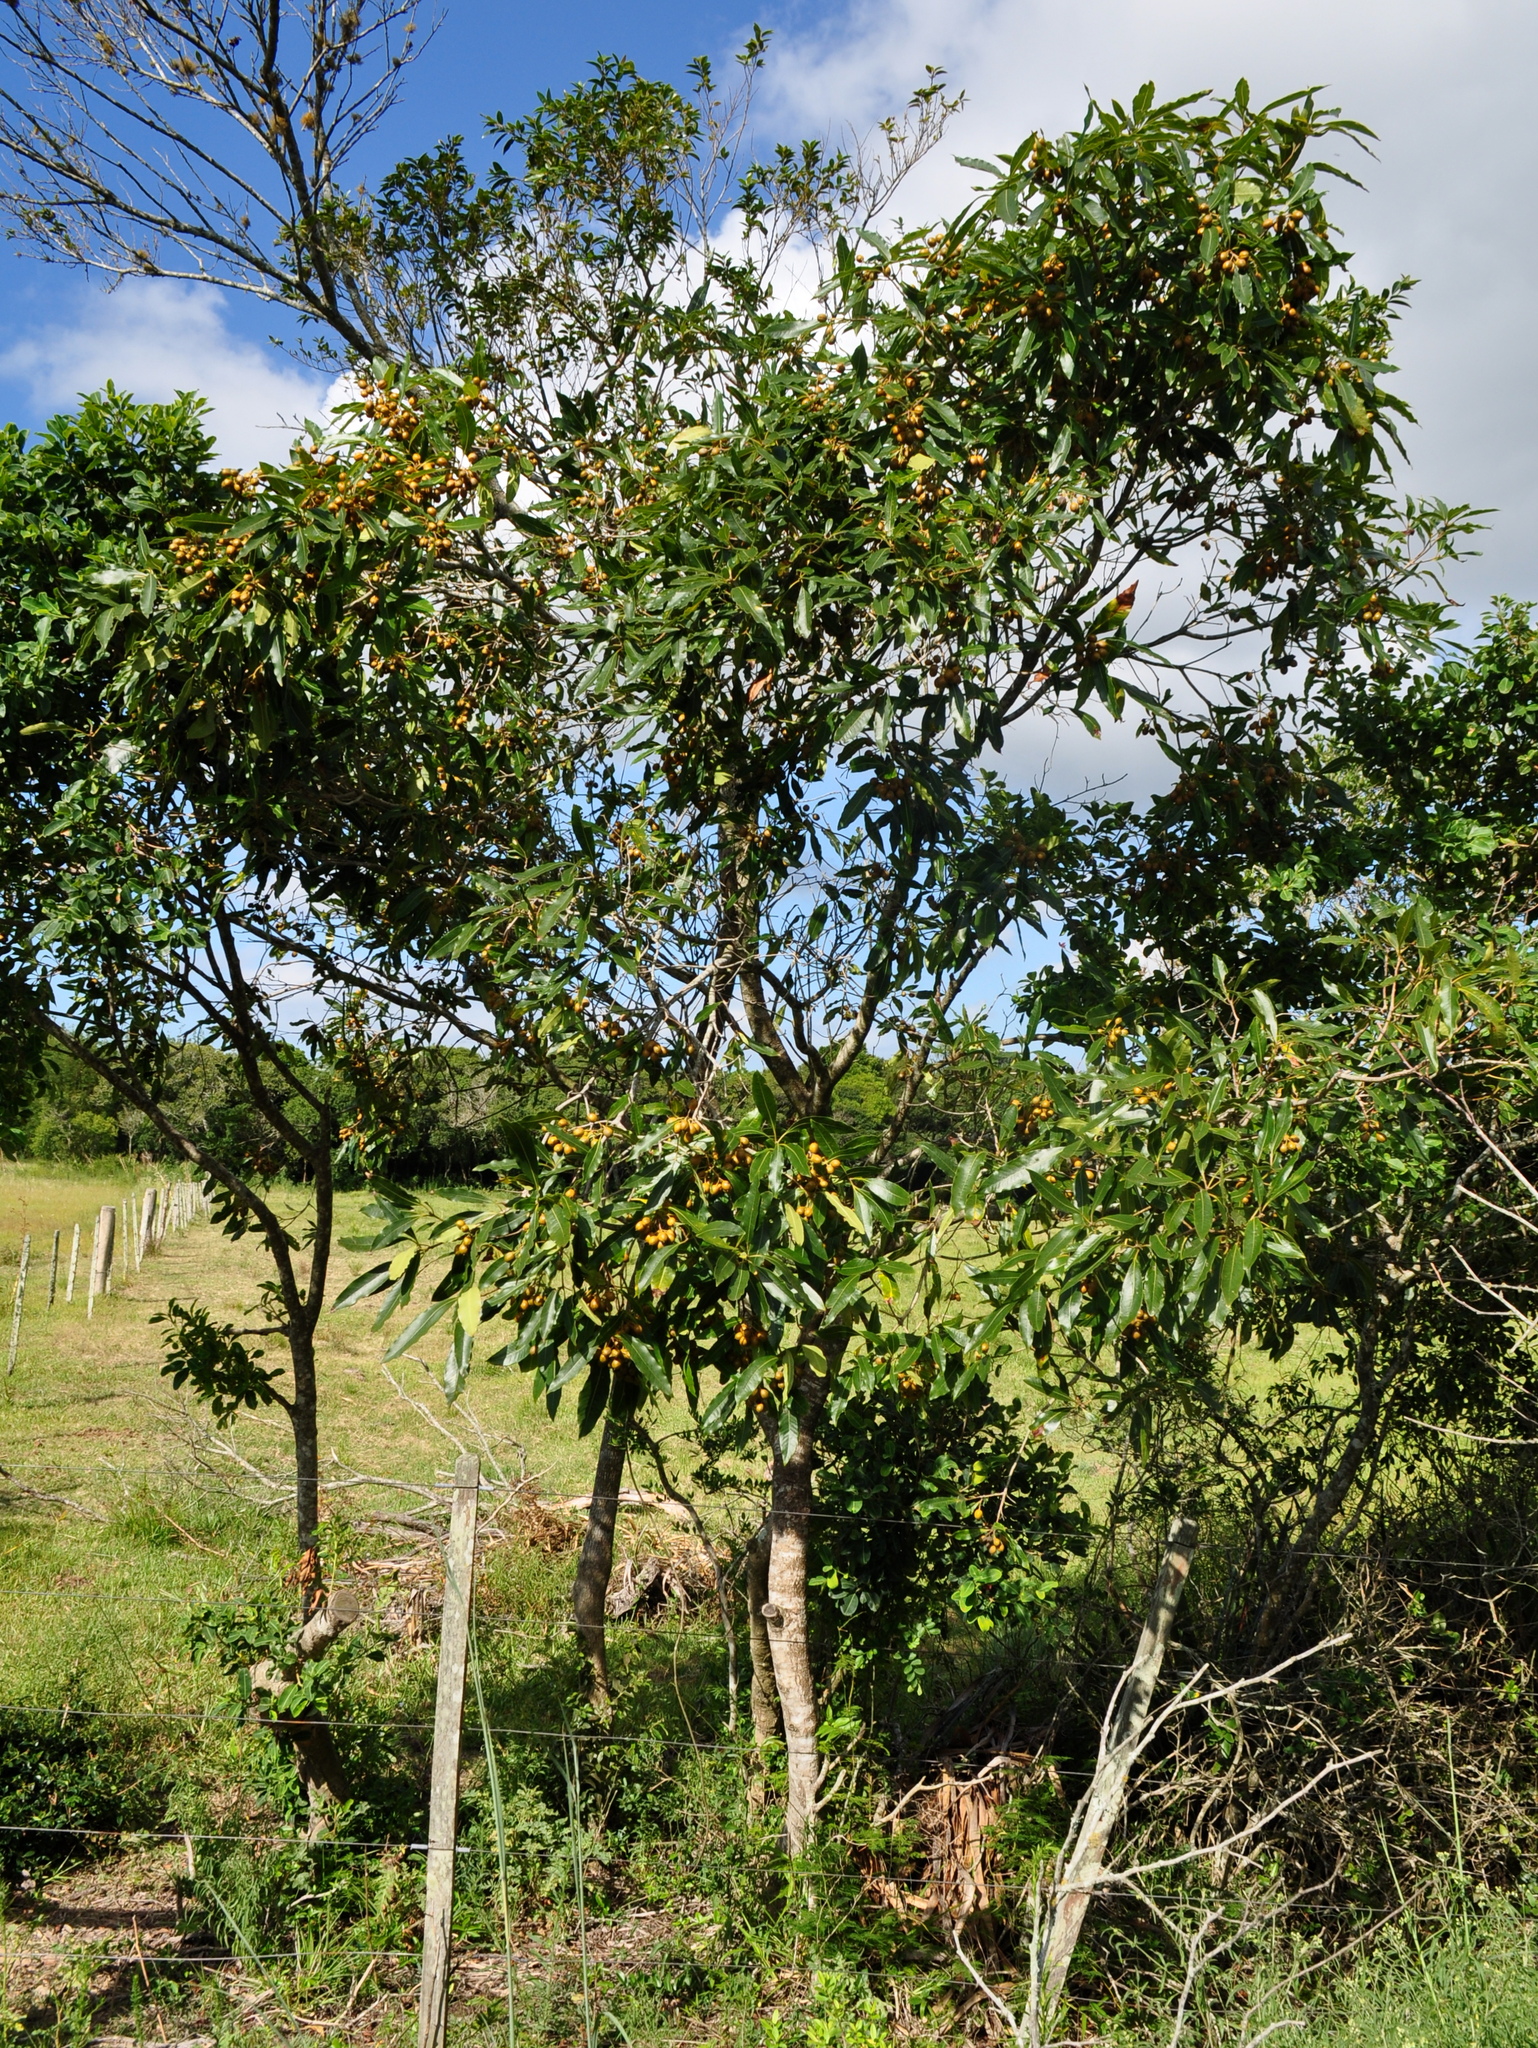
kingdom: Plantae
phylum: Tracheophyta
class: Magnoliopsida
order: Apiales
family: Pittosporaceae
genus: Pittosporum
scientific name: Pittosporum undulatum
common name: Australian cheesewood
